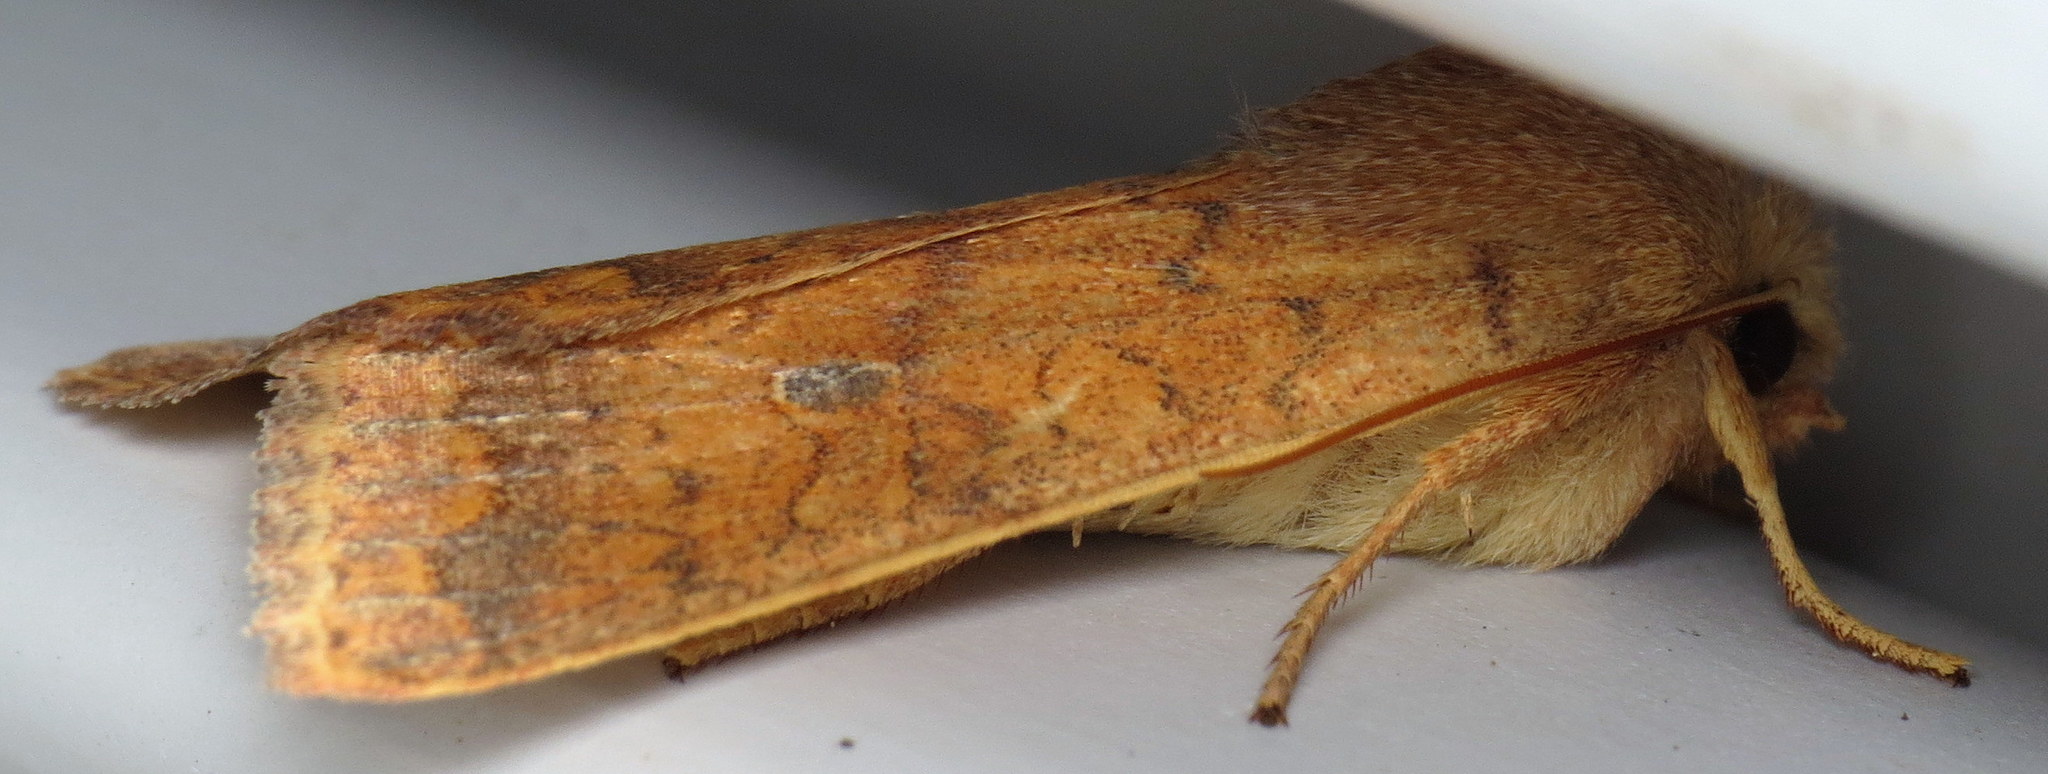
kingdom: Animalia
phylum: Arthropoda
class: Insecta
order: Lepidoptera
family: Noctuidae
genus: Agrochola
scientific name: Agrochola bicolorago
